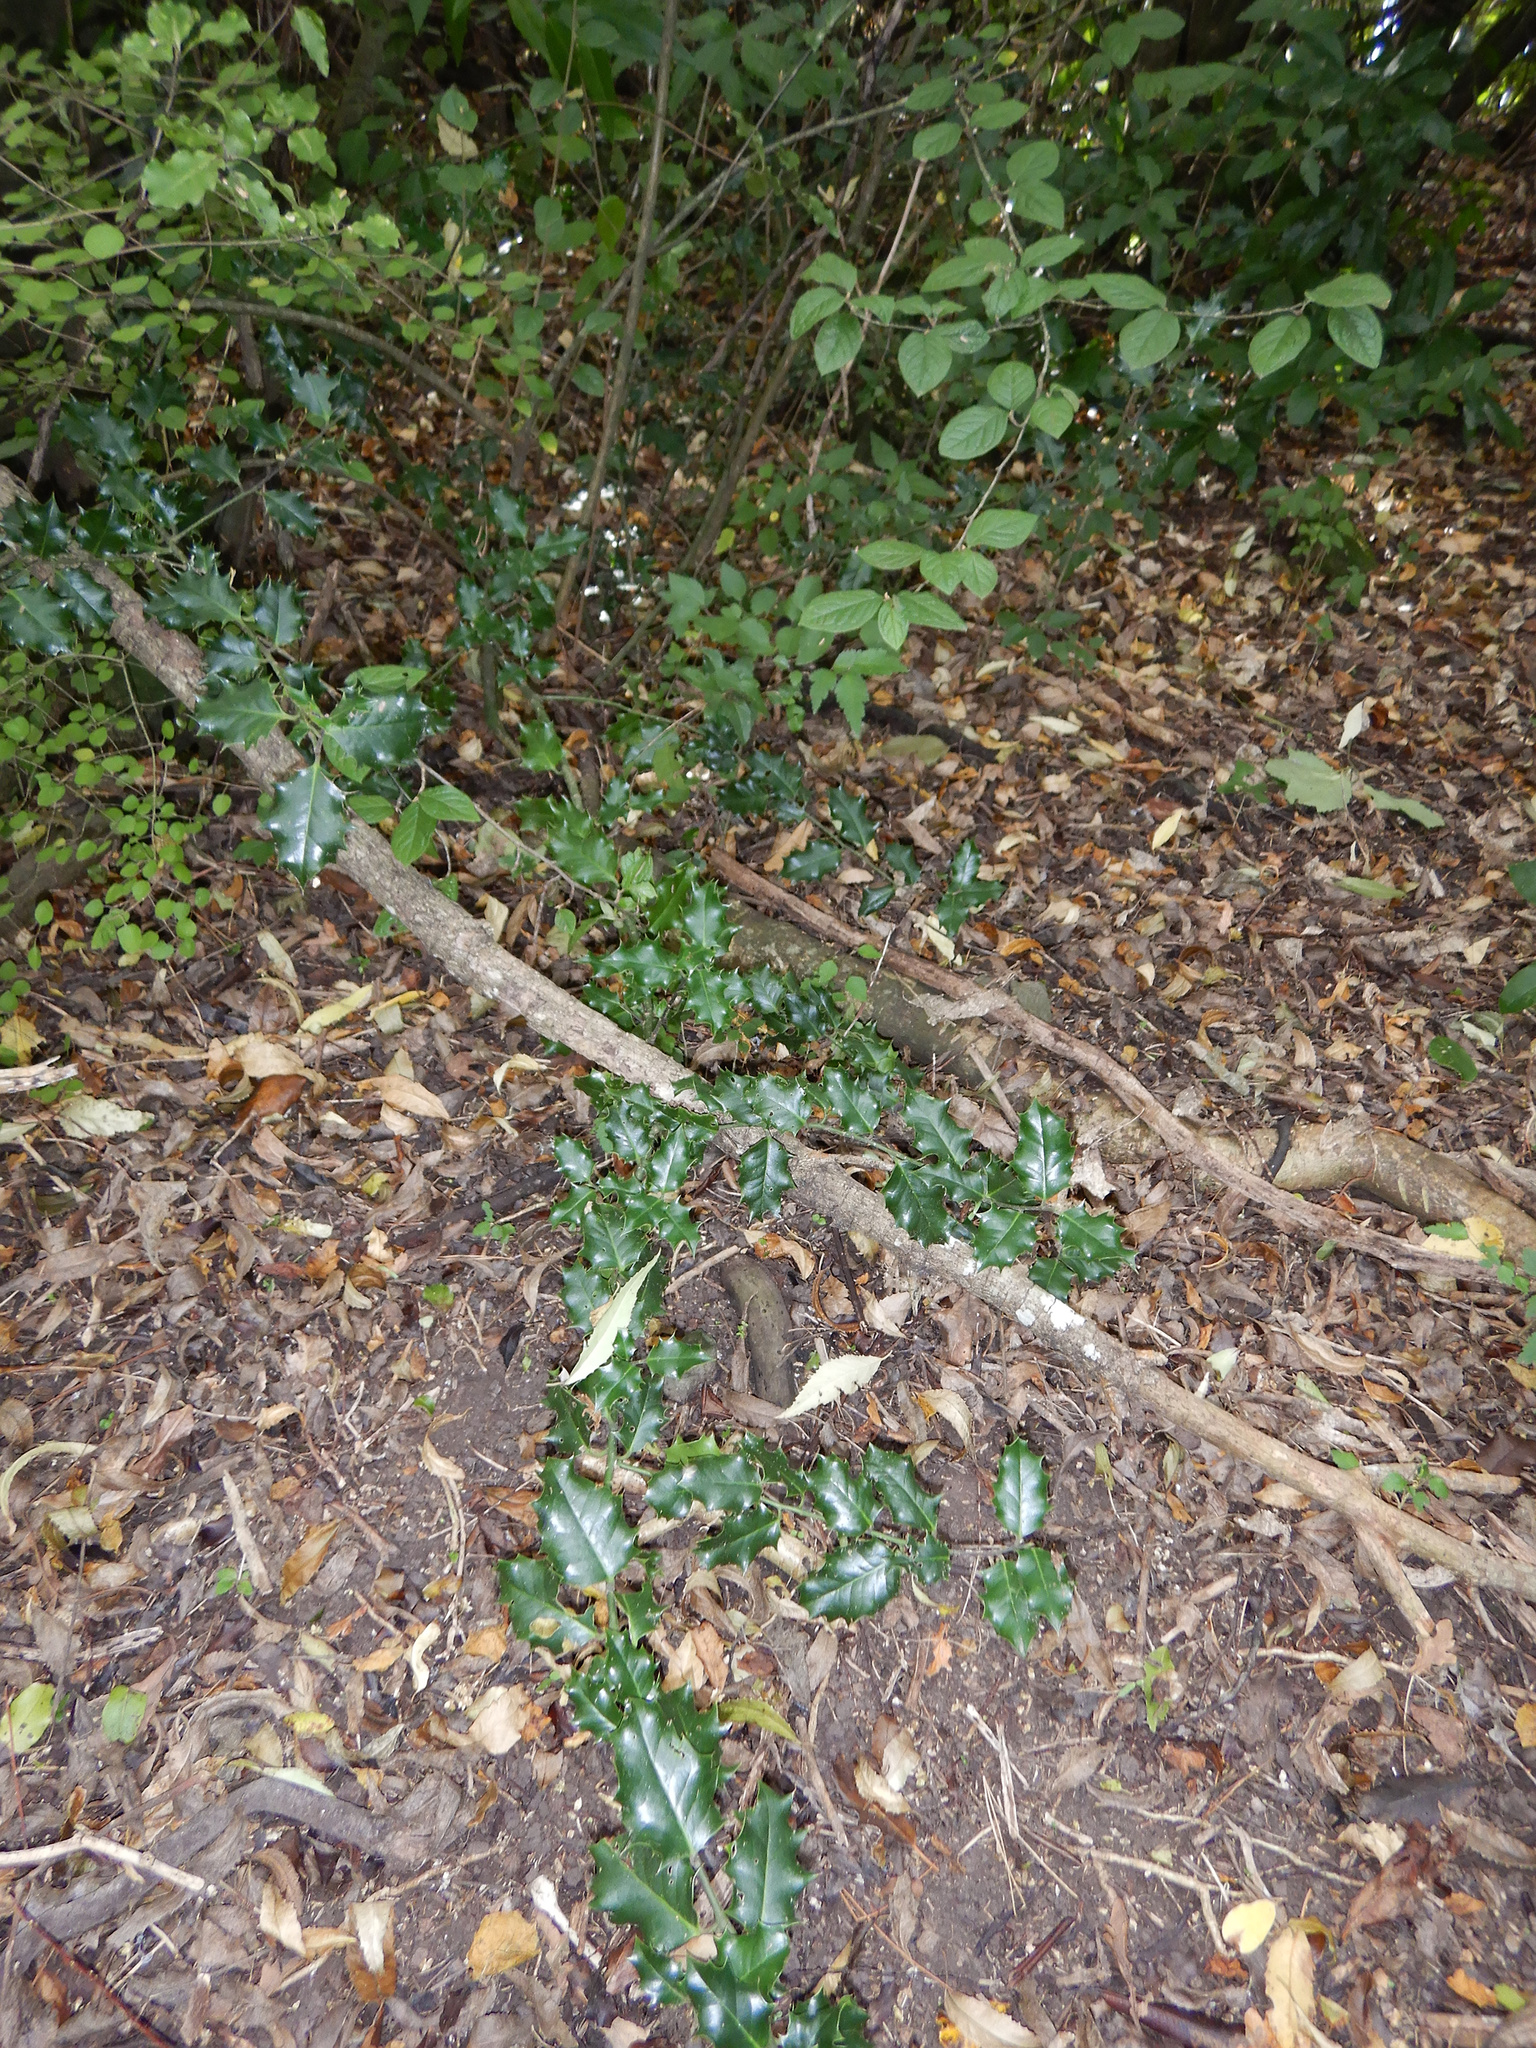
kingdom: Plantae
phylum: Tracheophyta
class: Magnoliopsida
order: Aquifoliales
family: Aquifoliaceae
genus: Ilex
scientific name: Ilex aquifolium
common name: English holly
